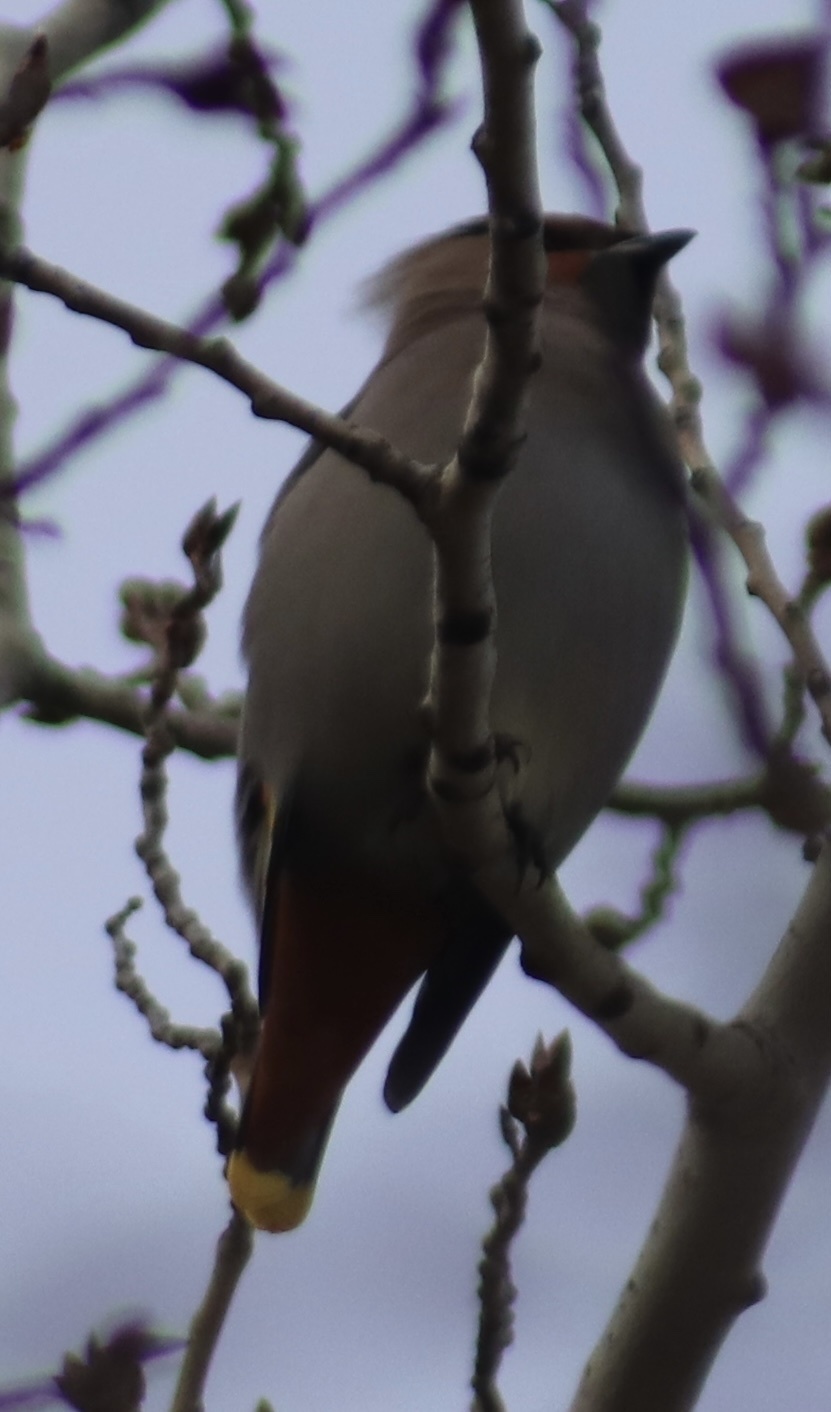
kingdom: Animalia
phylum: Chordata
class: Aves
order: Passeriformes
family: Bombycillidae
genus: Bombycilla
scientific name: Bombycilla garrulus
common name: Bohemian waxwing
